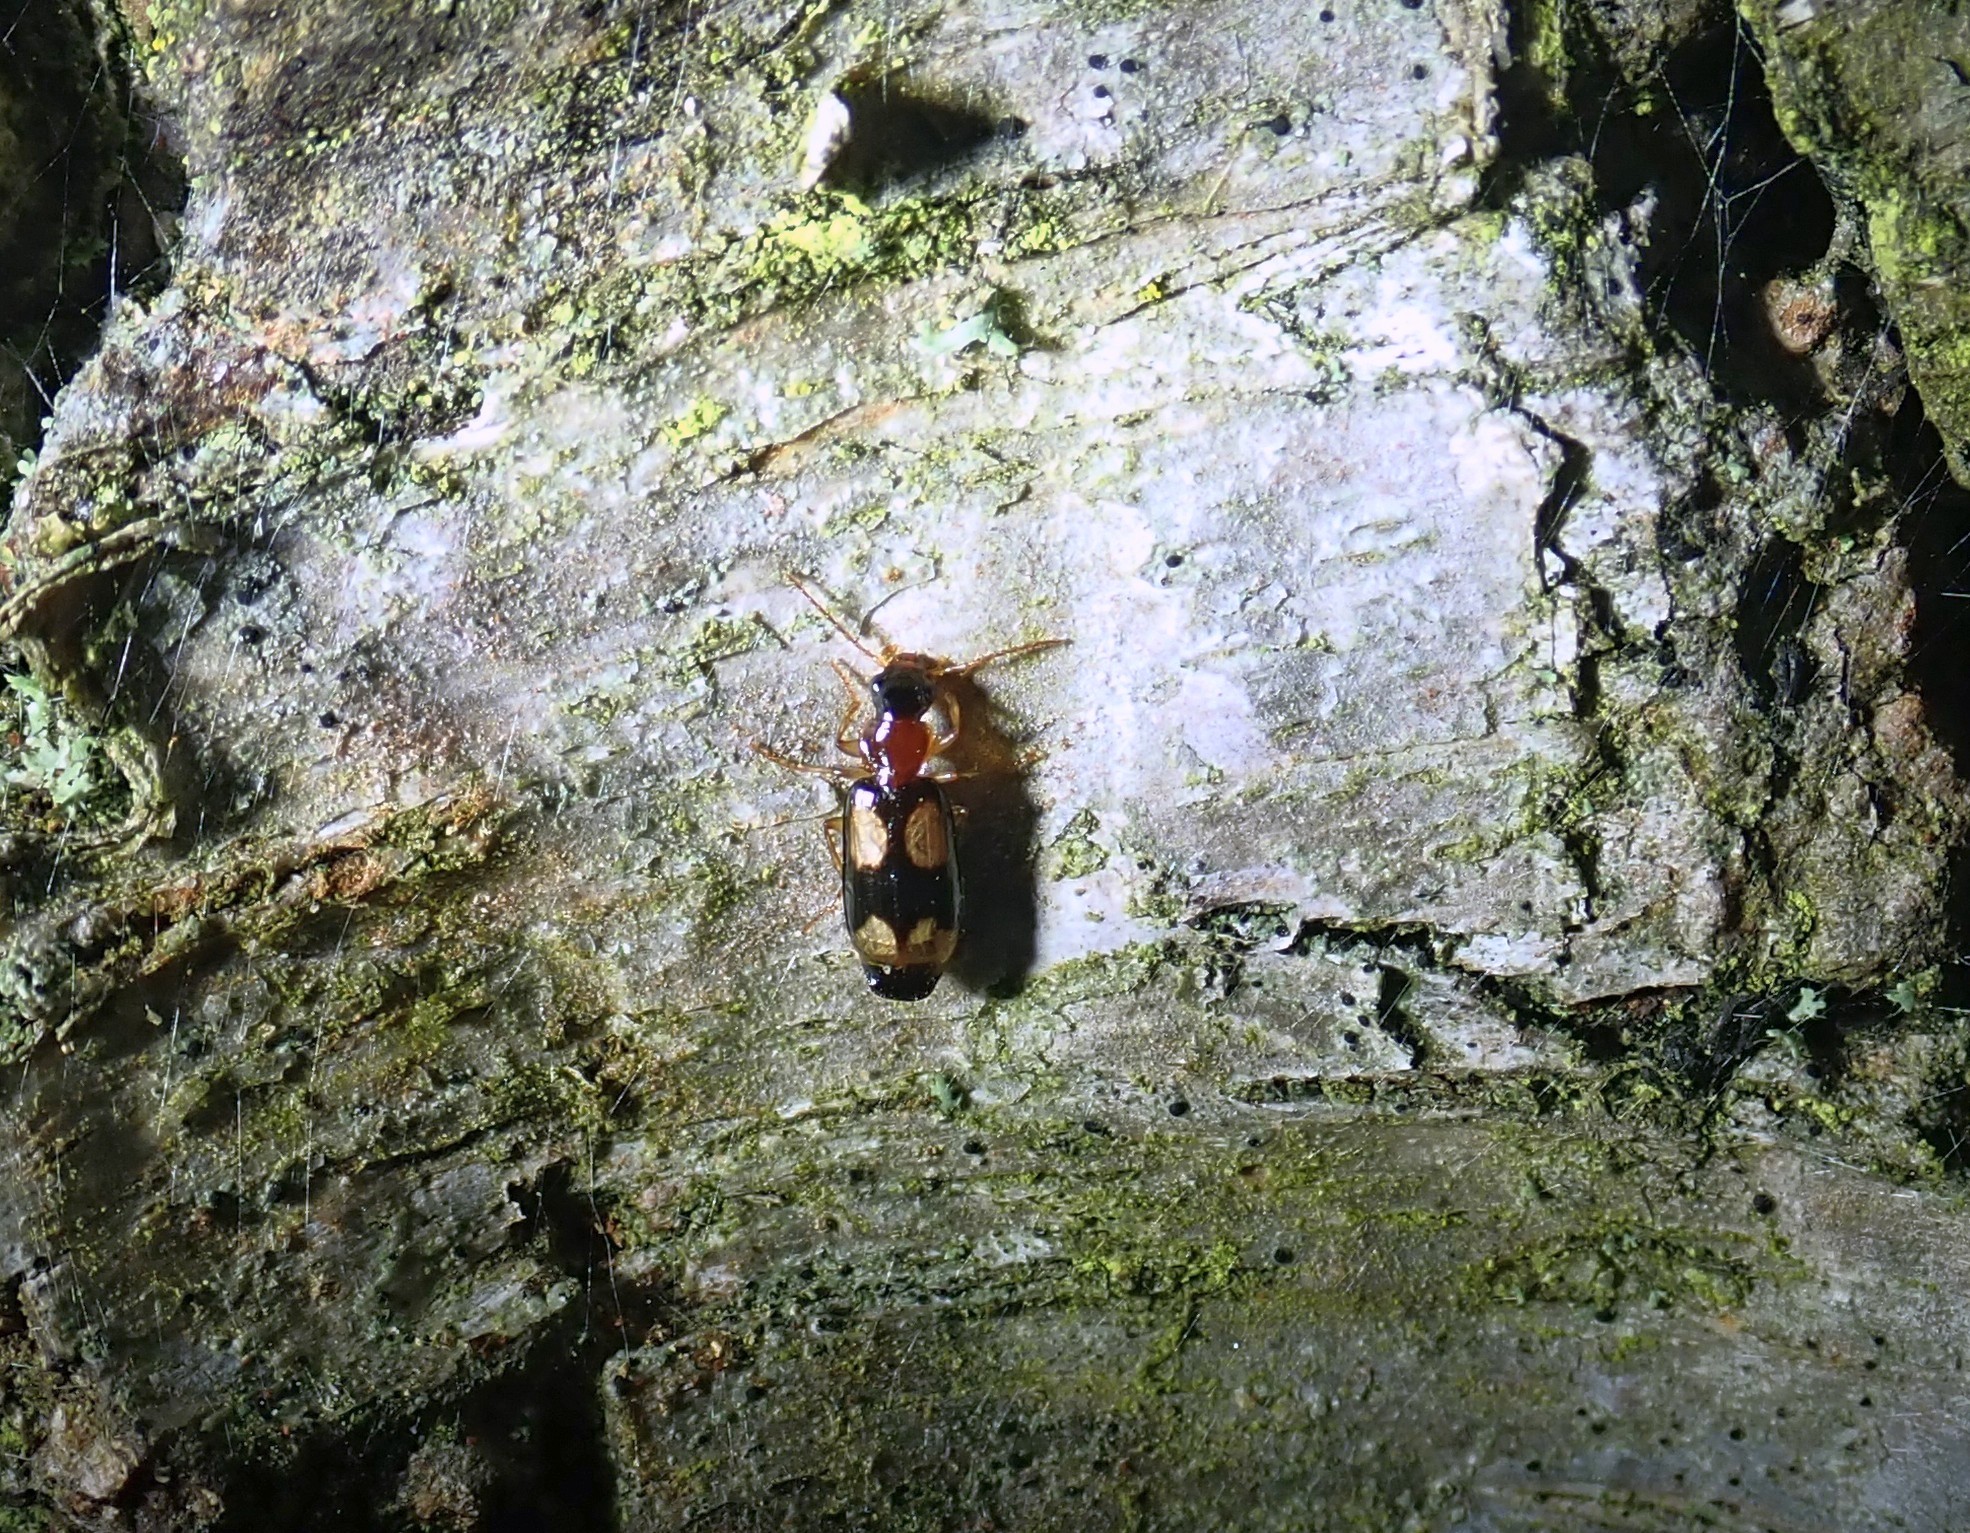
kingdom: Animalia
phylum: Arthropoda
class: Insecta
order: Coleoptera
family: Carabidae
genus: Dromius
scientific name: Dromius quadrimaculatus
